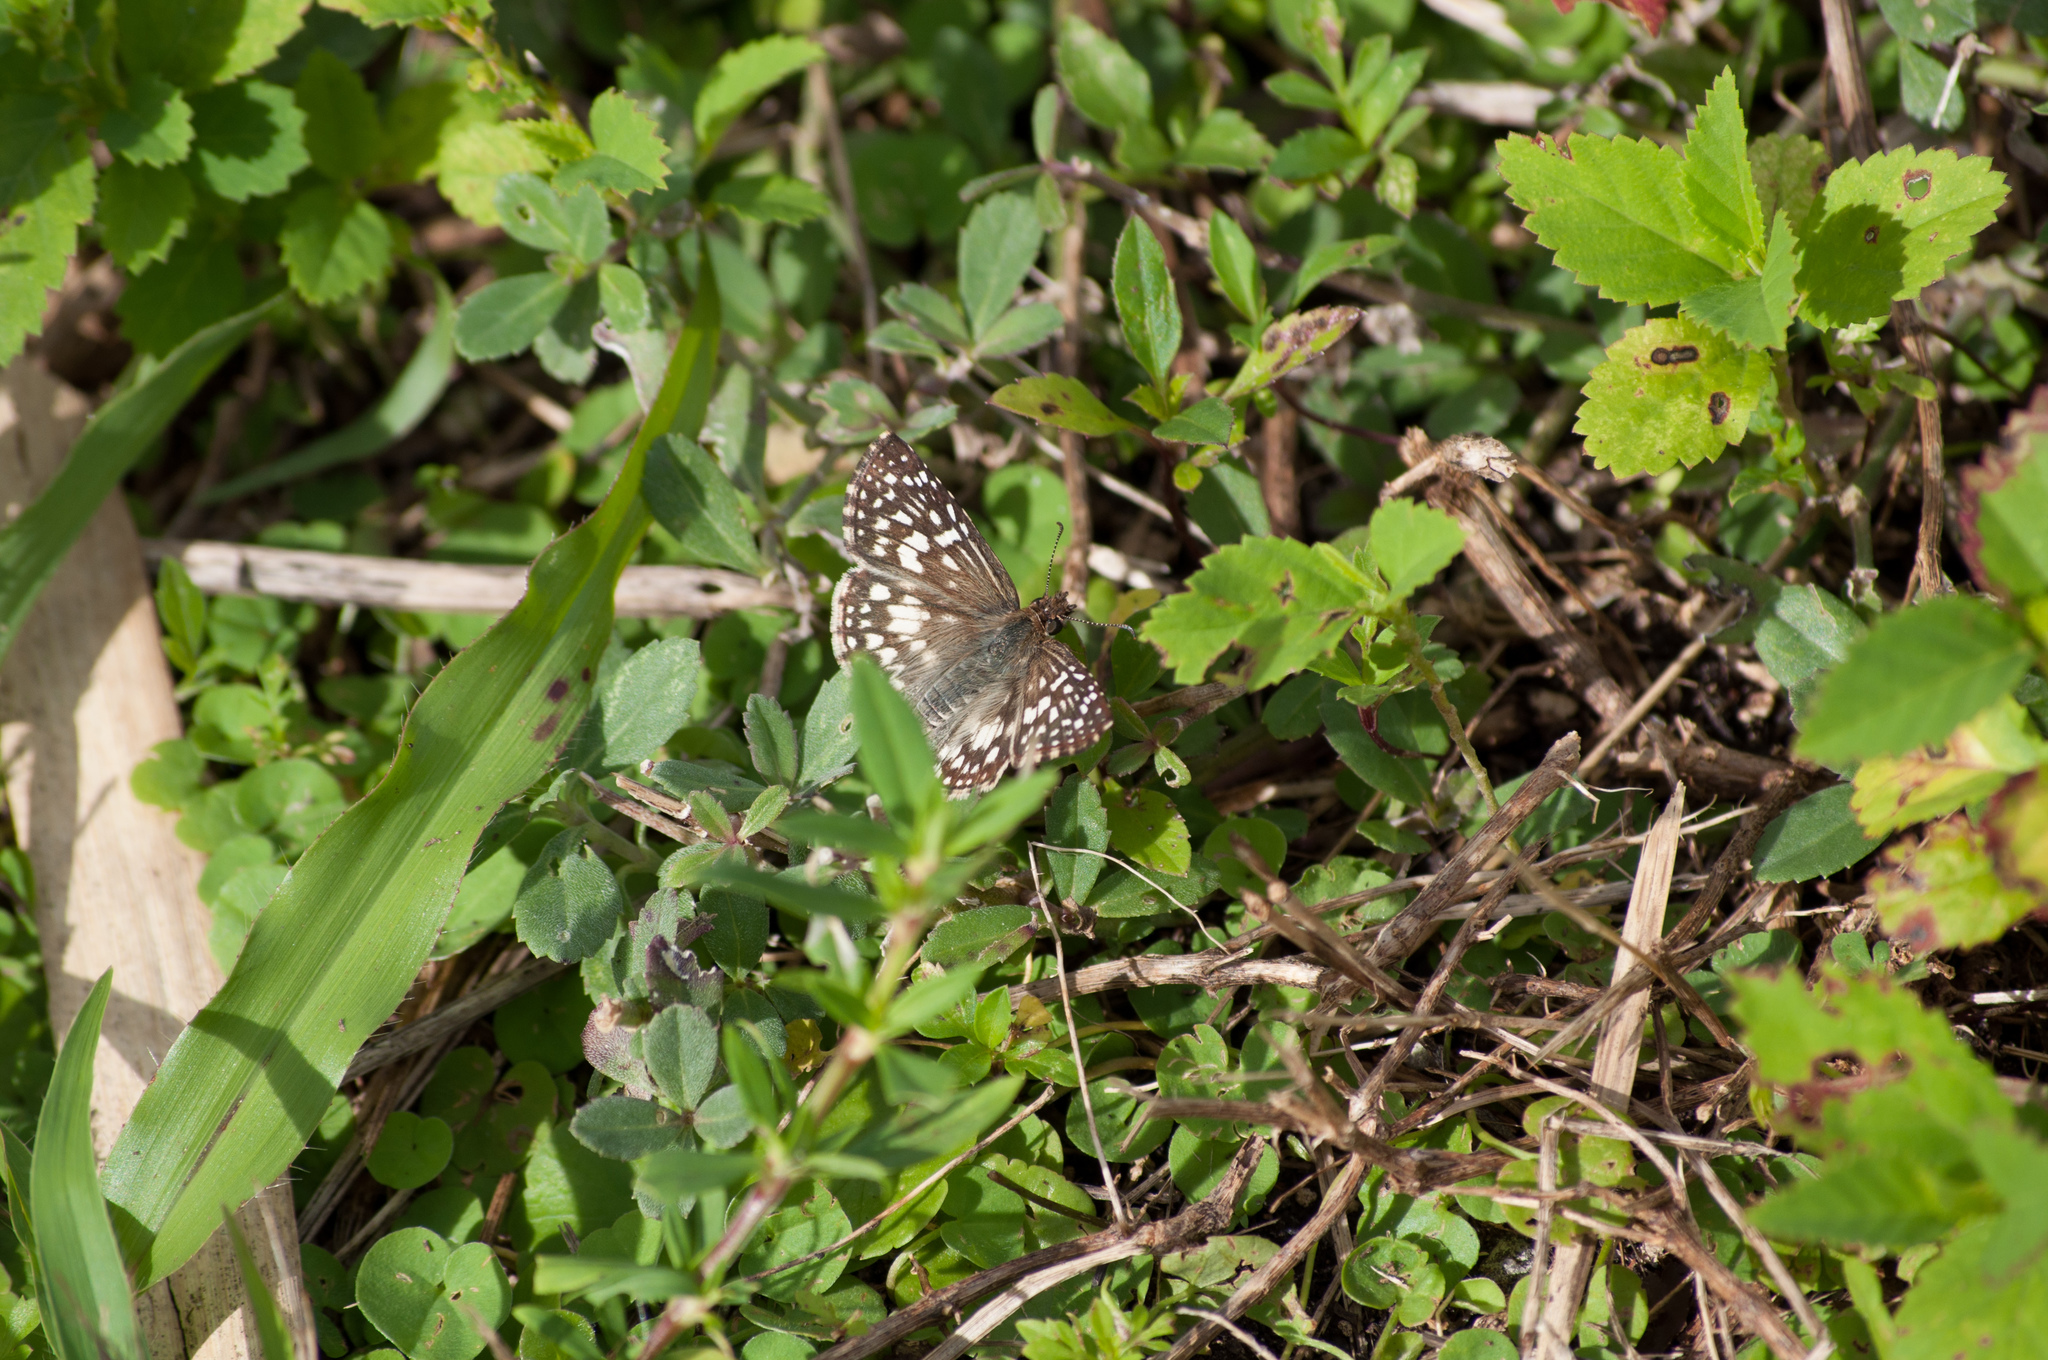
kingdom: Animalia
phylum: Arthropoda
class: Insecta
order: Lepidoptera
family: Hesperiidae
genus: Pyrgus
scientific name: Pyrgus oileus
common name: Tropical checkered-skipper
